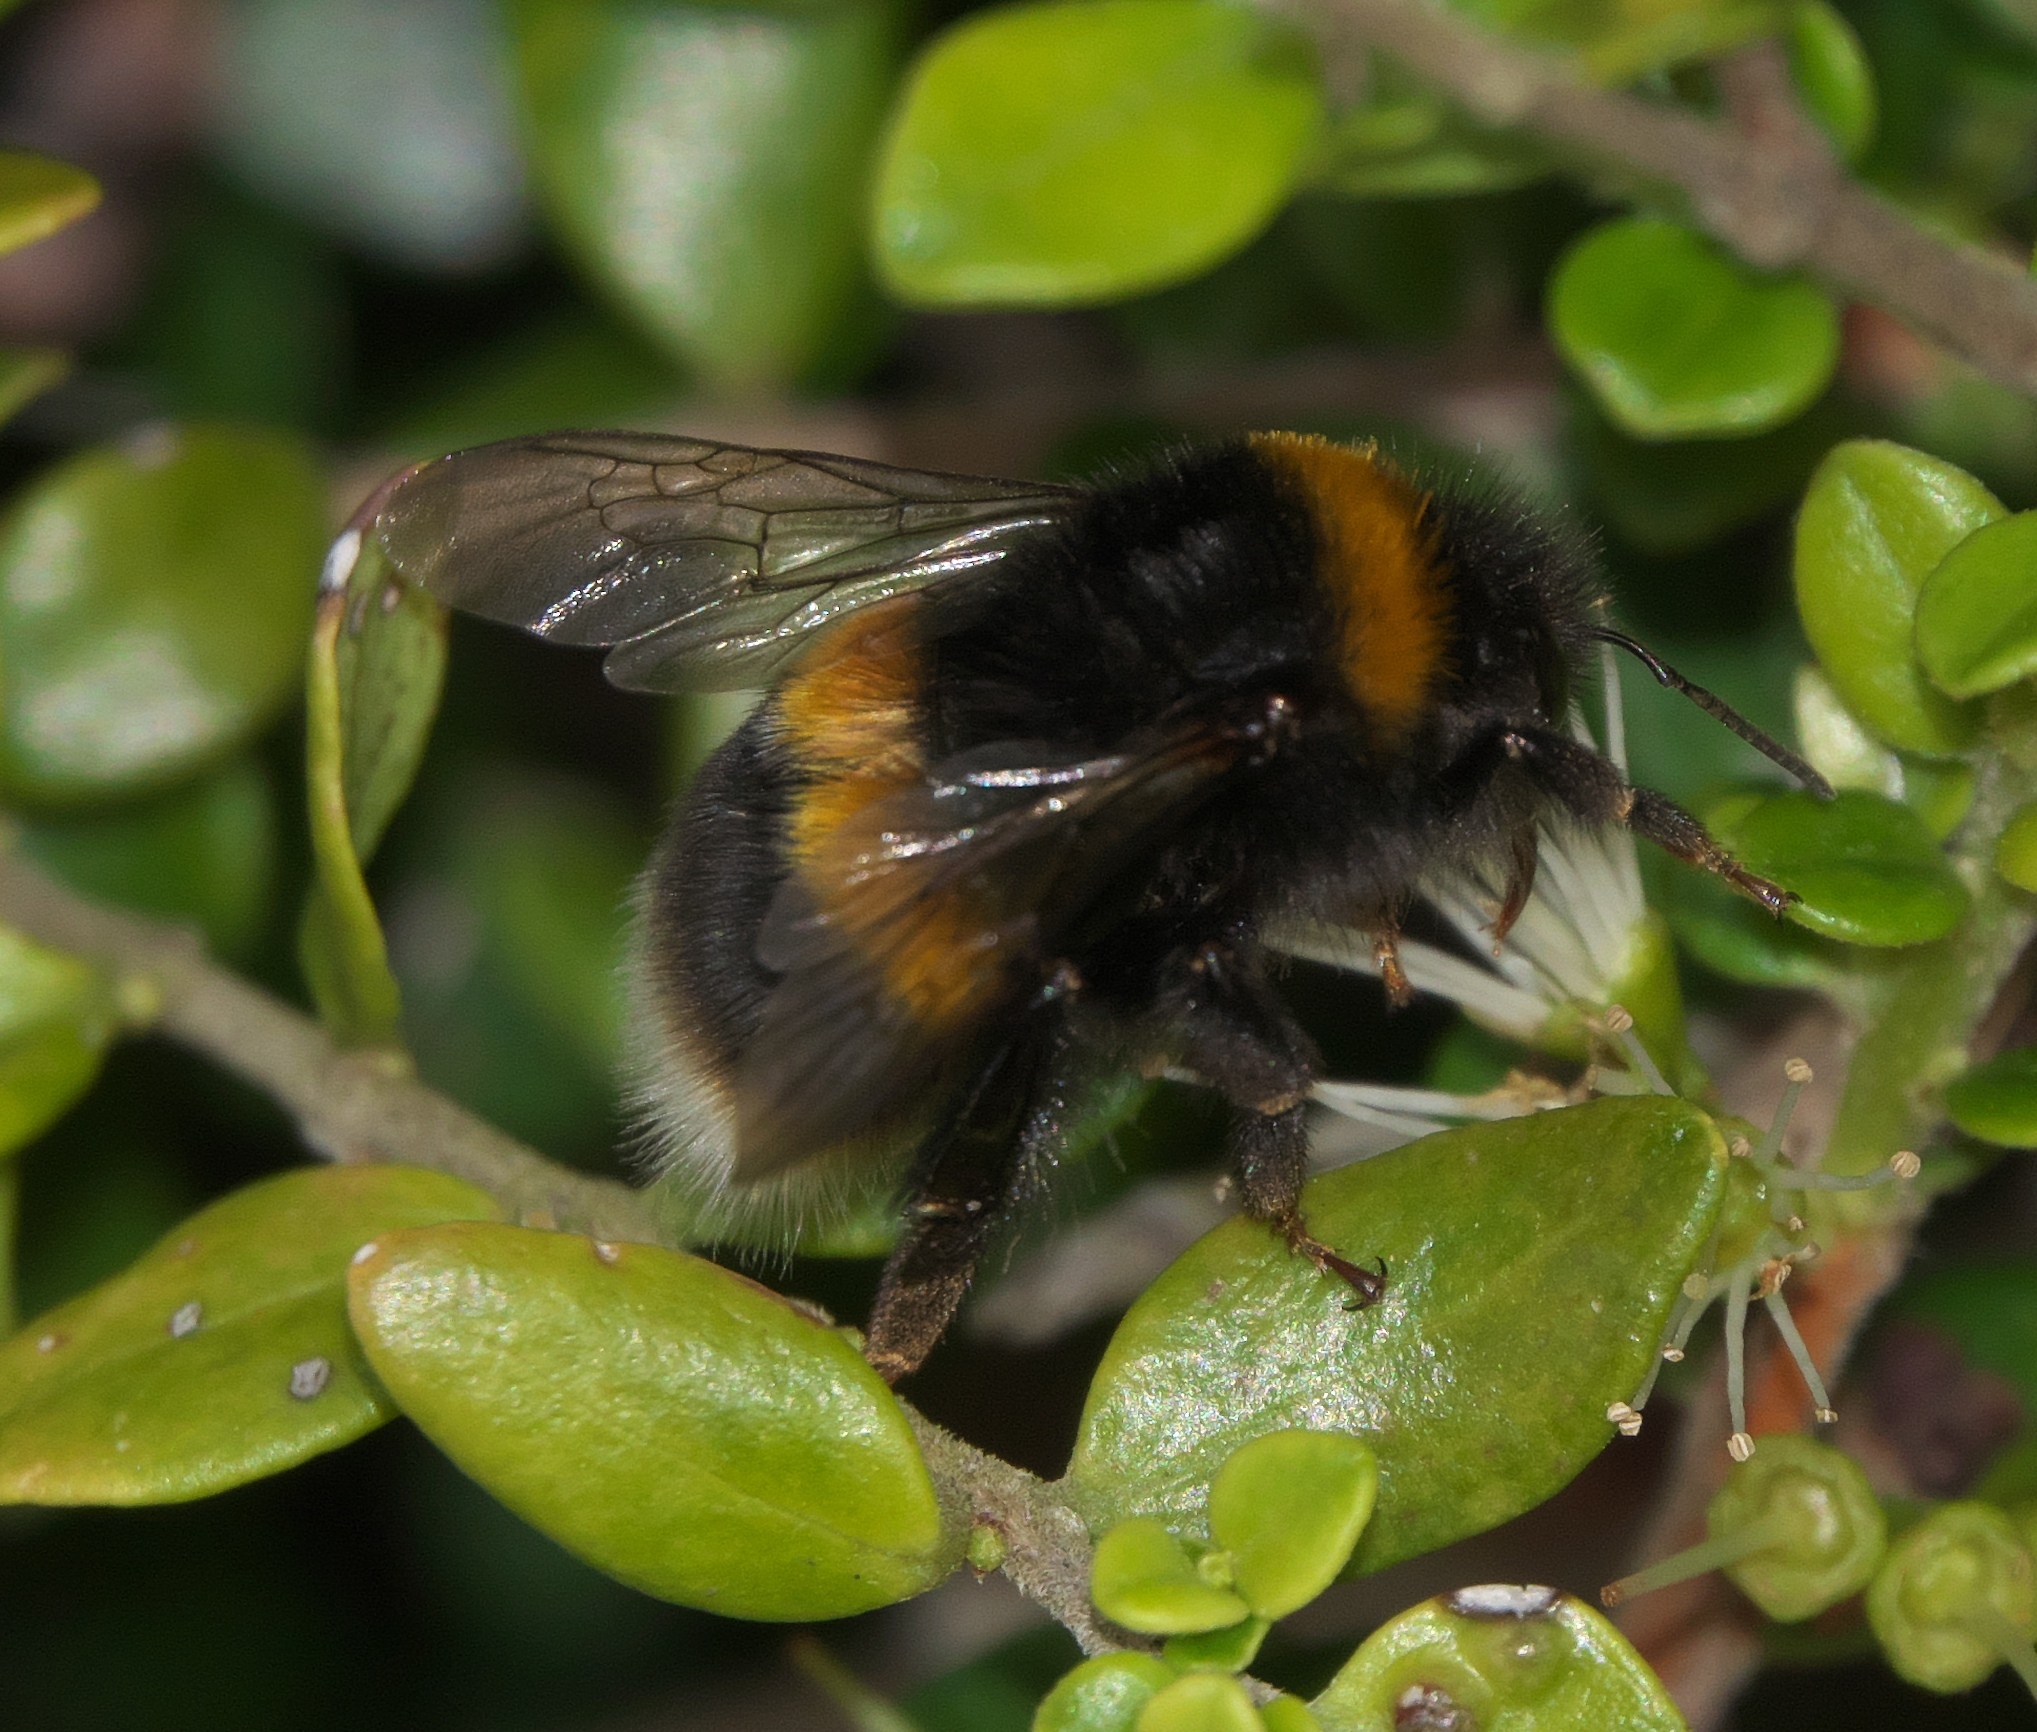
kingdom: Animalia
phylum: Arthropoda
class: Insecta
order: Hymenoptera
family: Apidae
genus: Bombus
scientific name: Bombus terrestris
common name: Buff-tailed bumblebee
